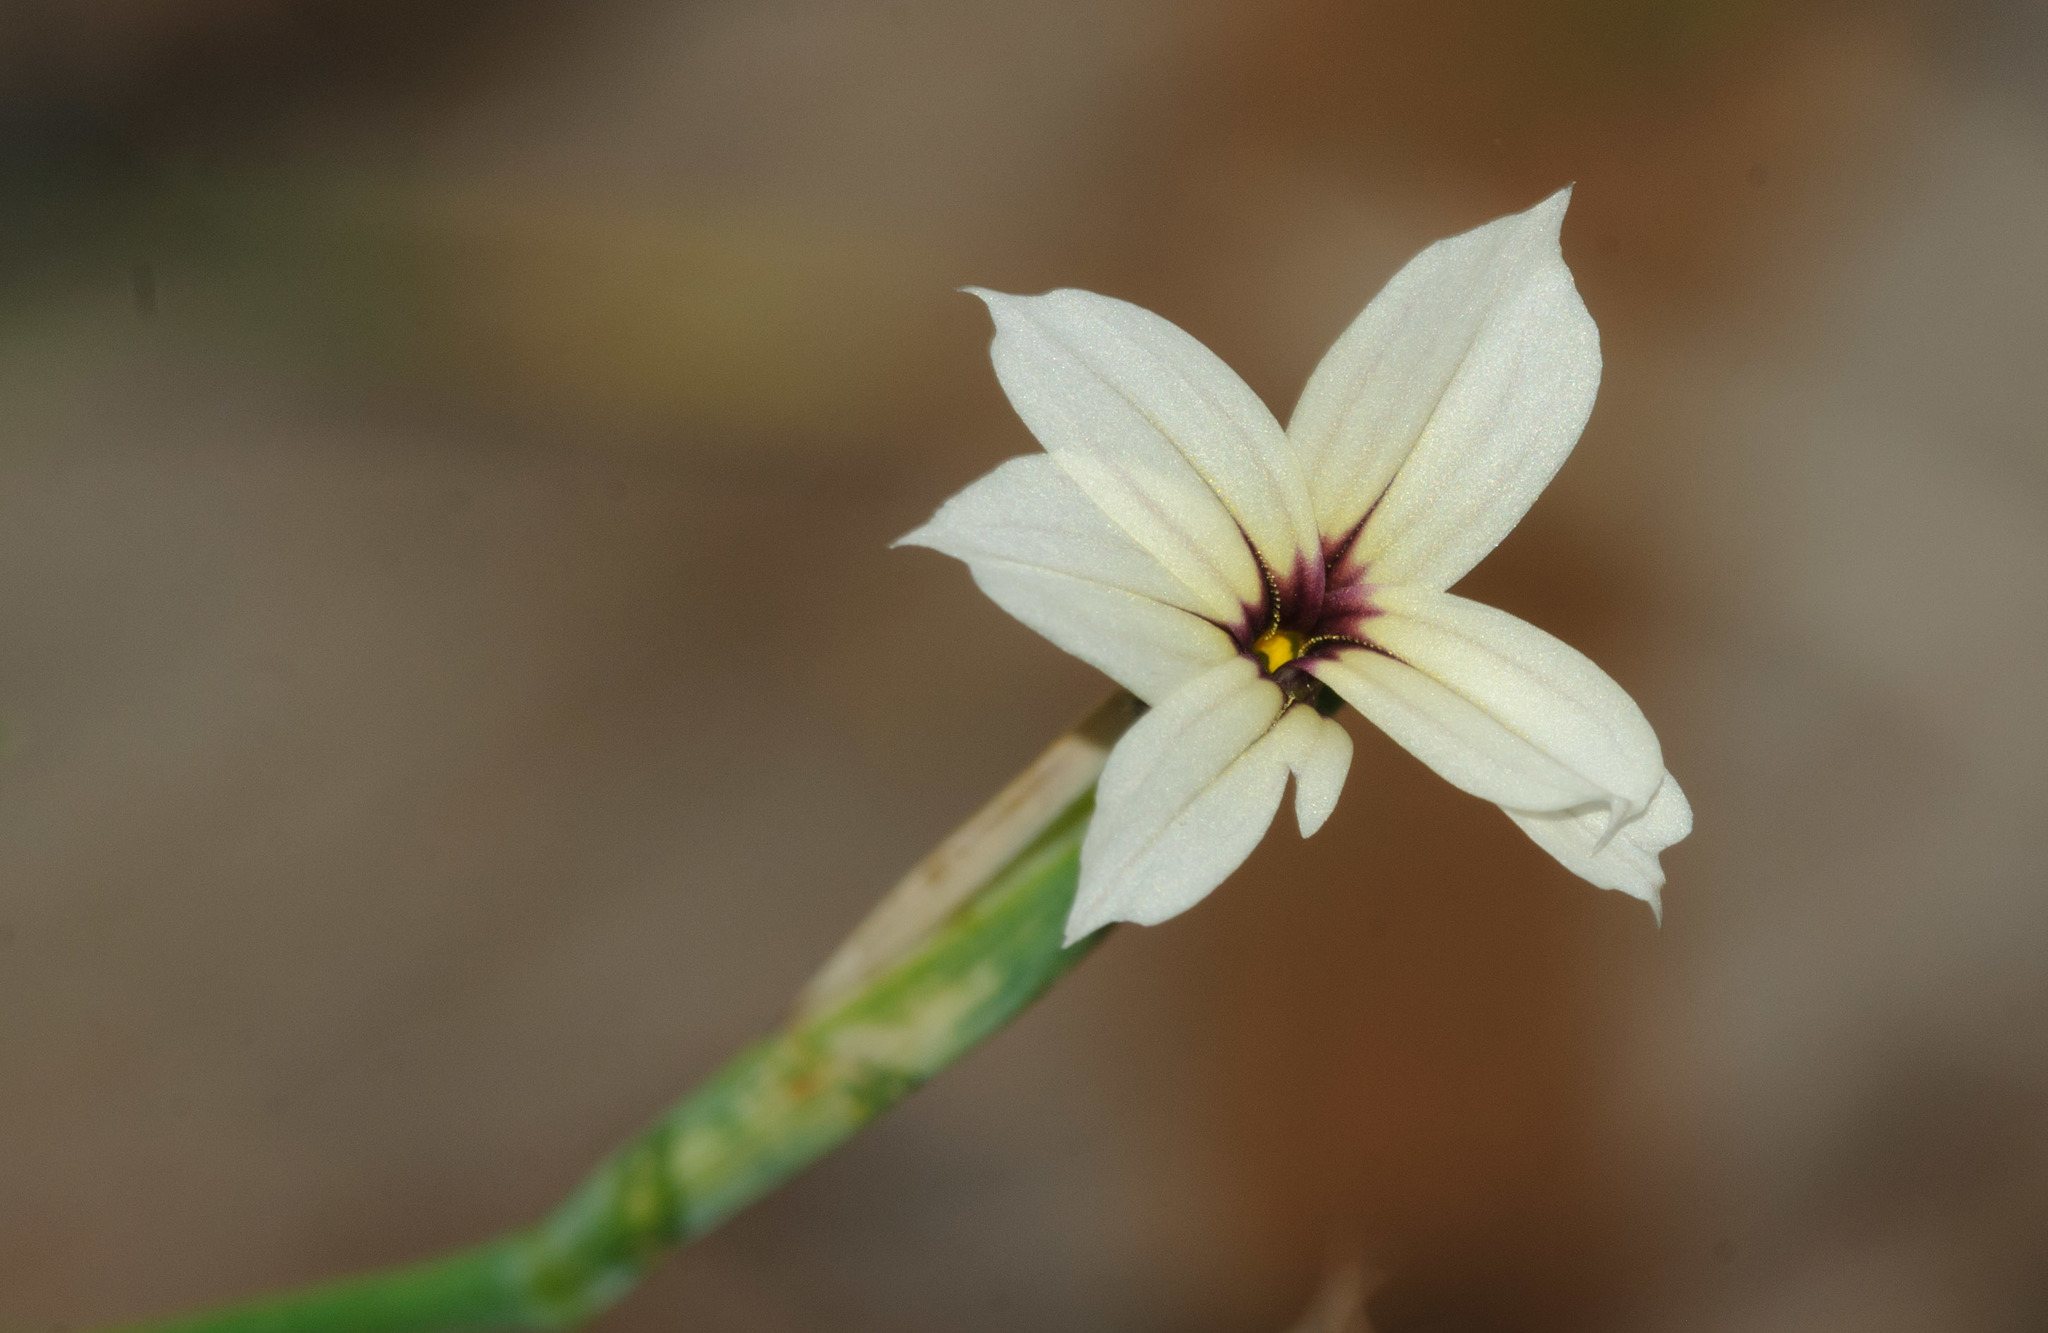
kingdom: Plantae
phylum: Tracheophyta
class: Liliopsida
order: Asparagales
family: Iridaceae
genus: Sisyrinchium
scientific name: Sisyrinchium micranthum
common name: Bermuda pigroot
